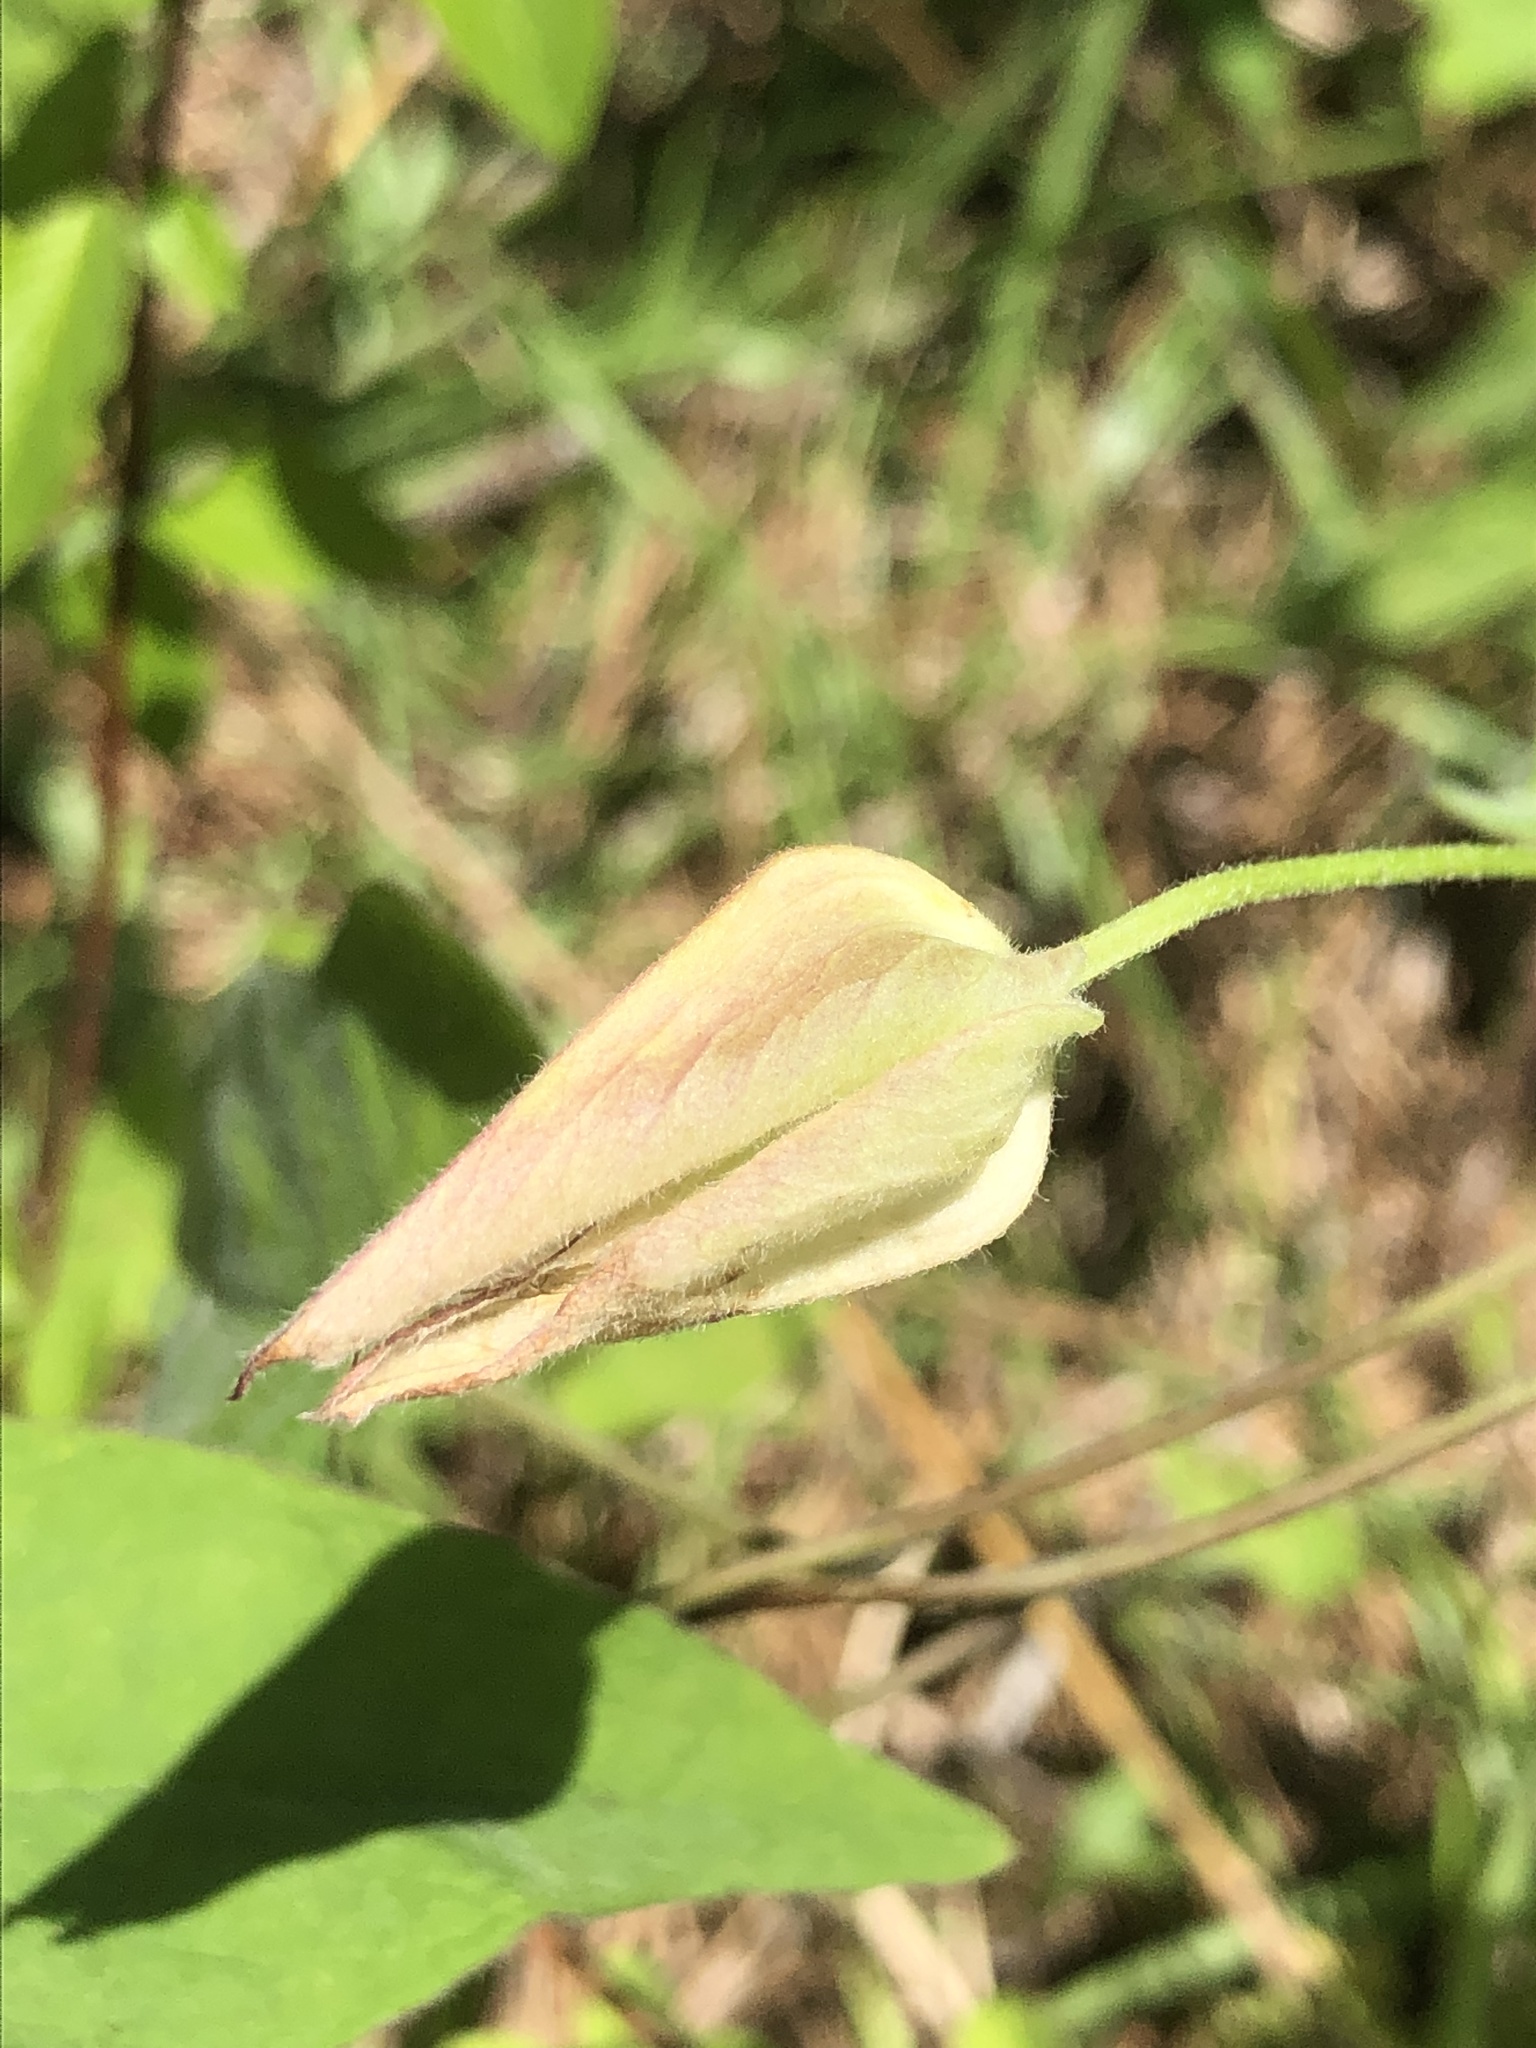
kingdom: Plantae
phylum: Tracheophyta
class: Magnoliopsida
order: Solanales
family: Convolvulaceae
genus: Calystegia
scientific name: Calystegia catesbeiana
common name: Catesby's false bindweed
